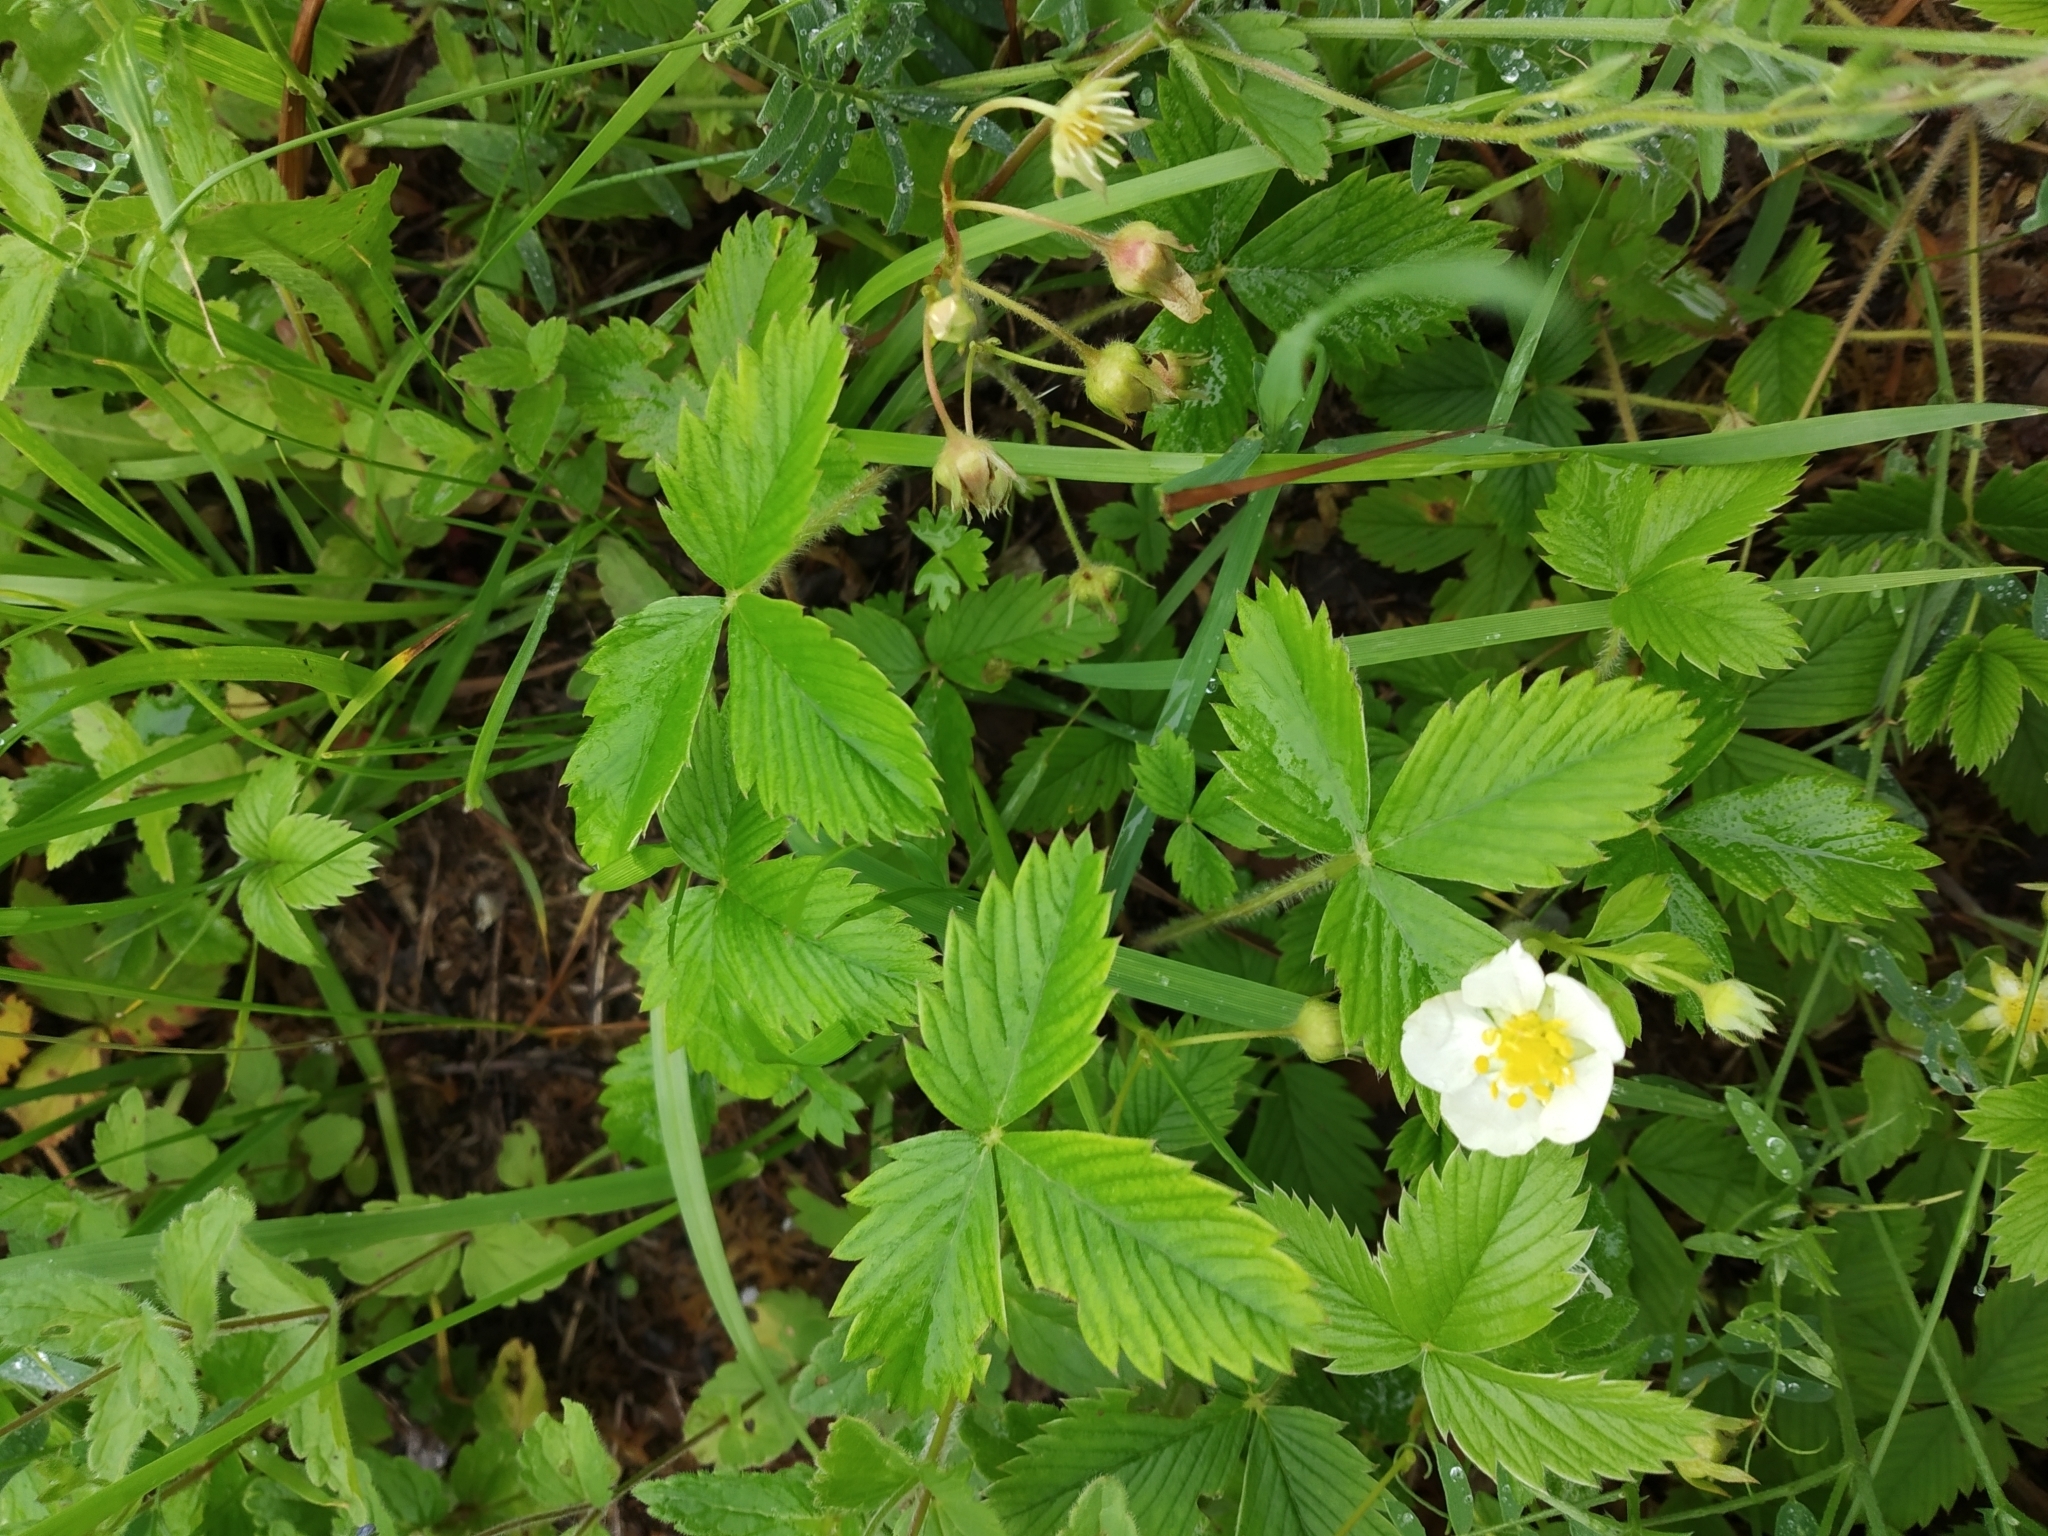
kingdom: Plantae
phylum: Tracheophyta
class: Magnoliopsida
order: Rosales
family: Rosaceae
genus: Fragaria
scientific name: Fragaria viridis
